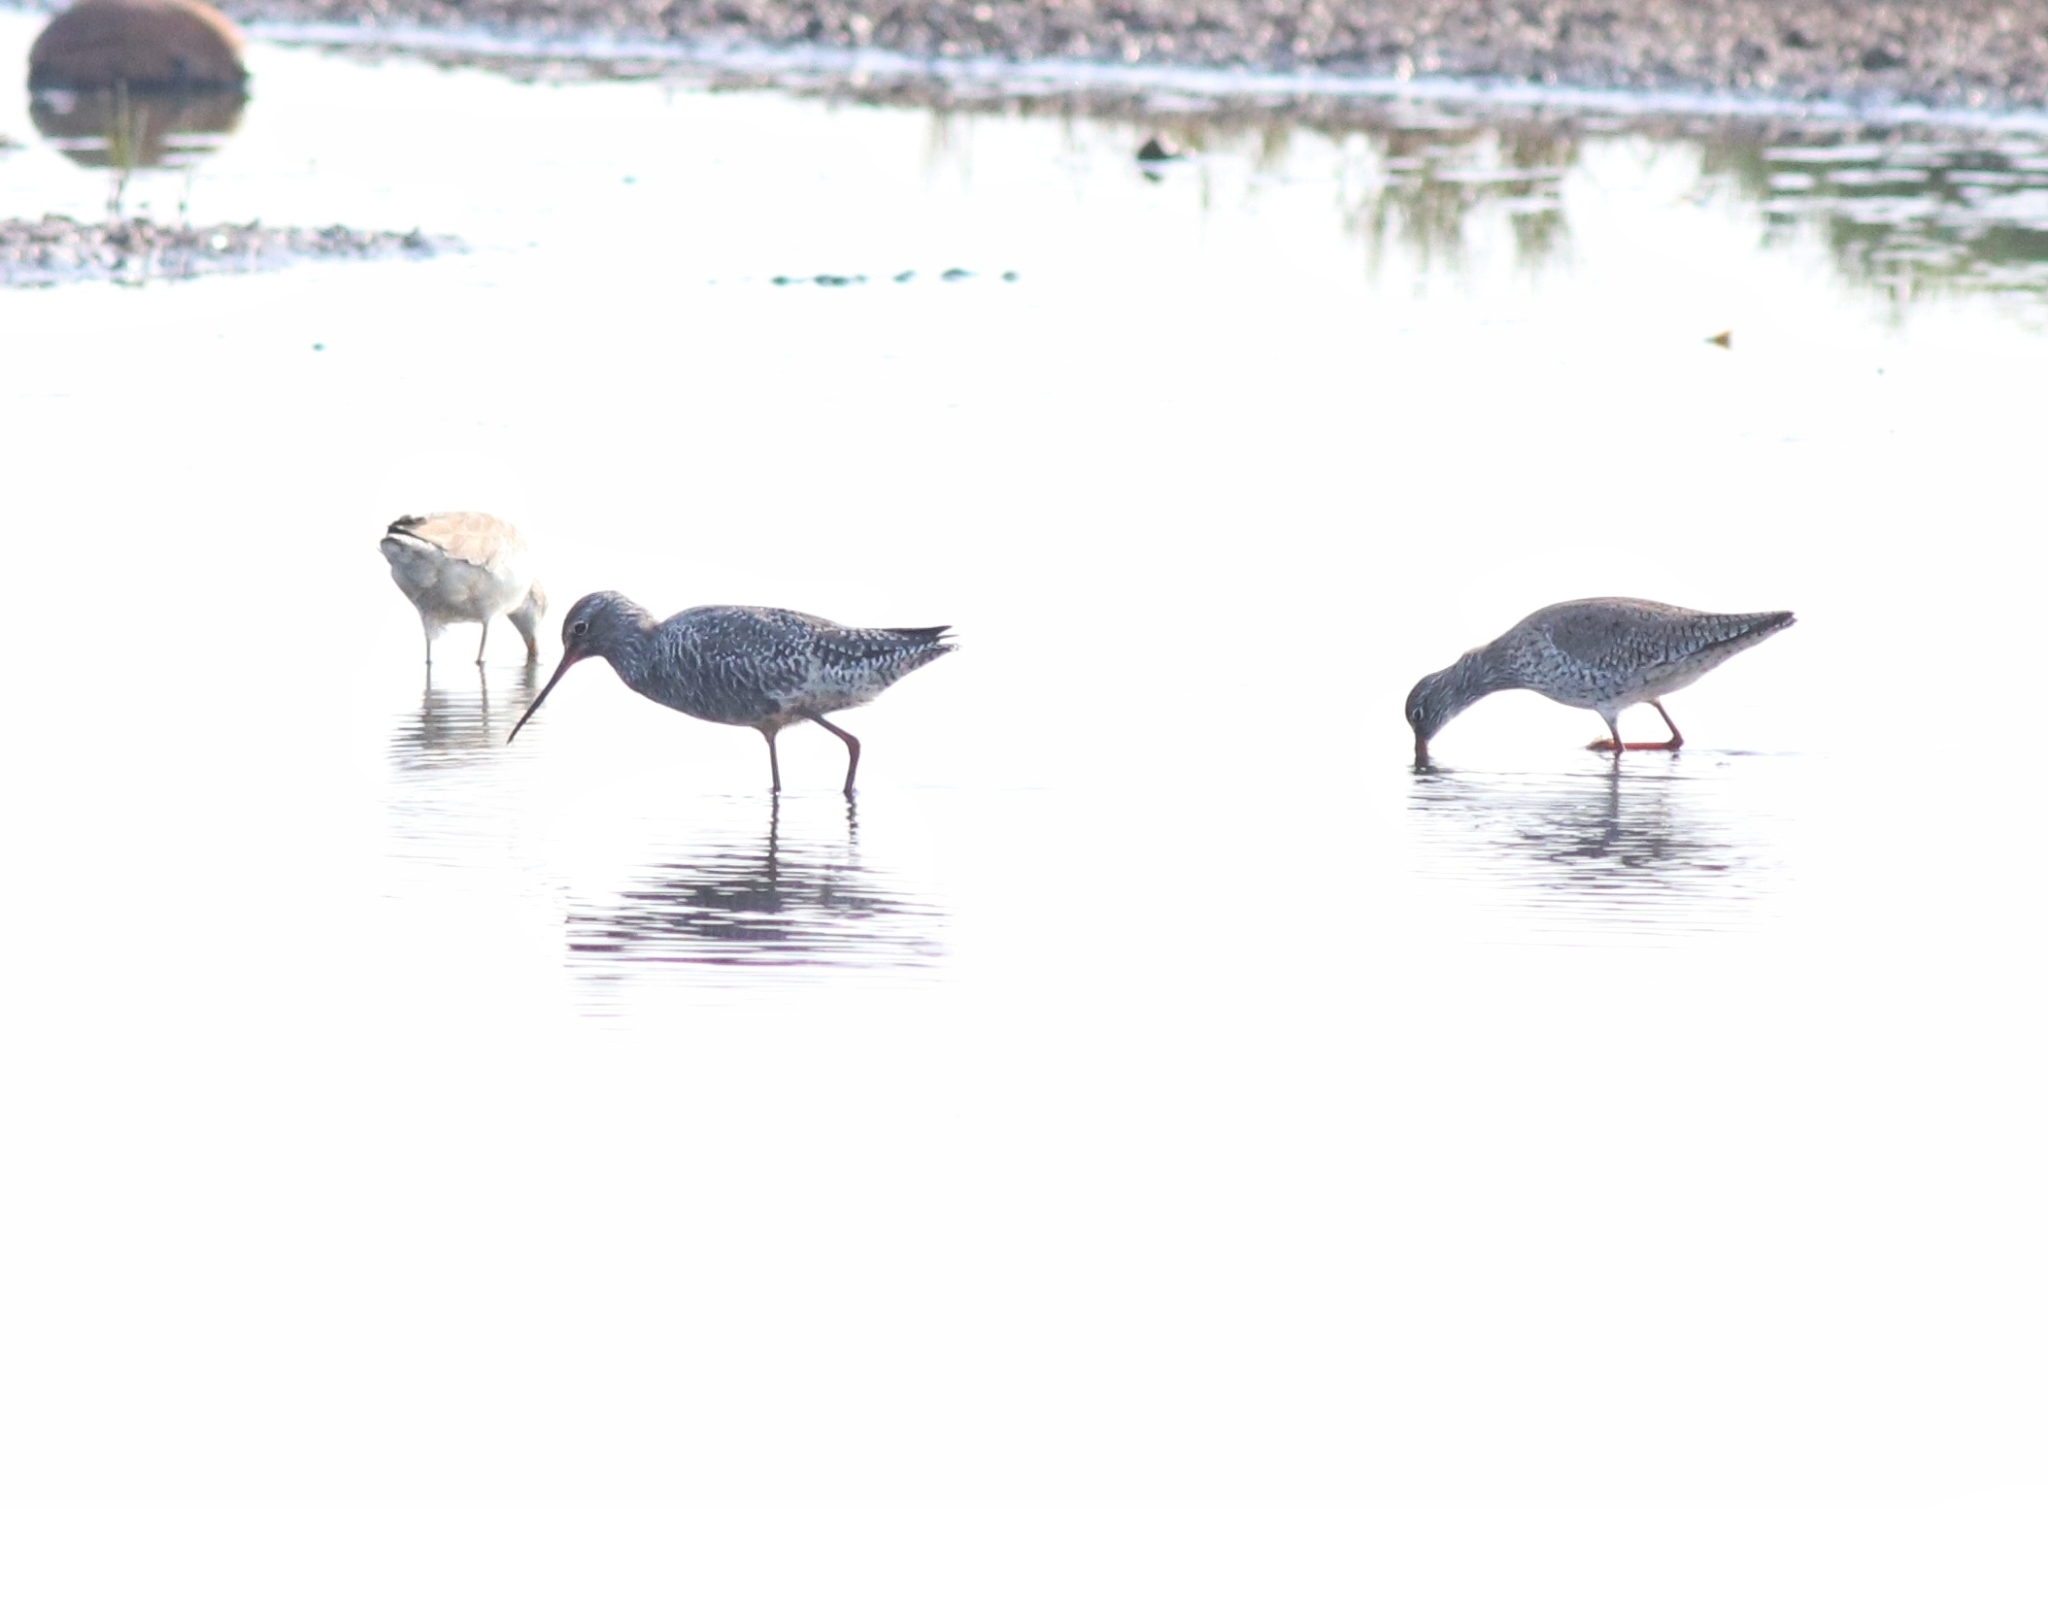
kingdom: Animalia
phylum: Chordata
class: Aves
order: Charadriiformes
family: Scolopacidae
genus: Tringa
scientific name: Tringa erythropus
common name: Spotted redshank
